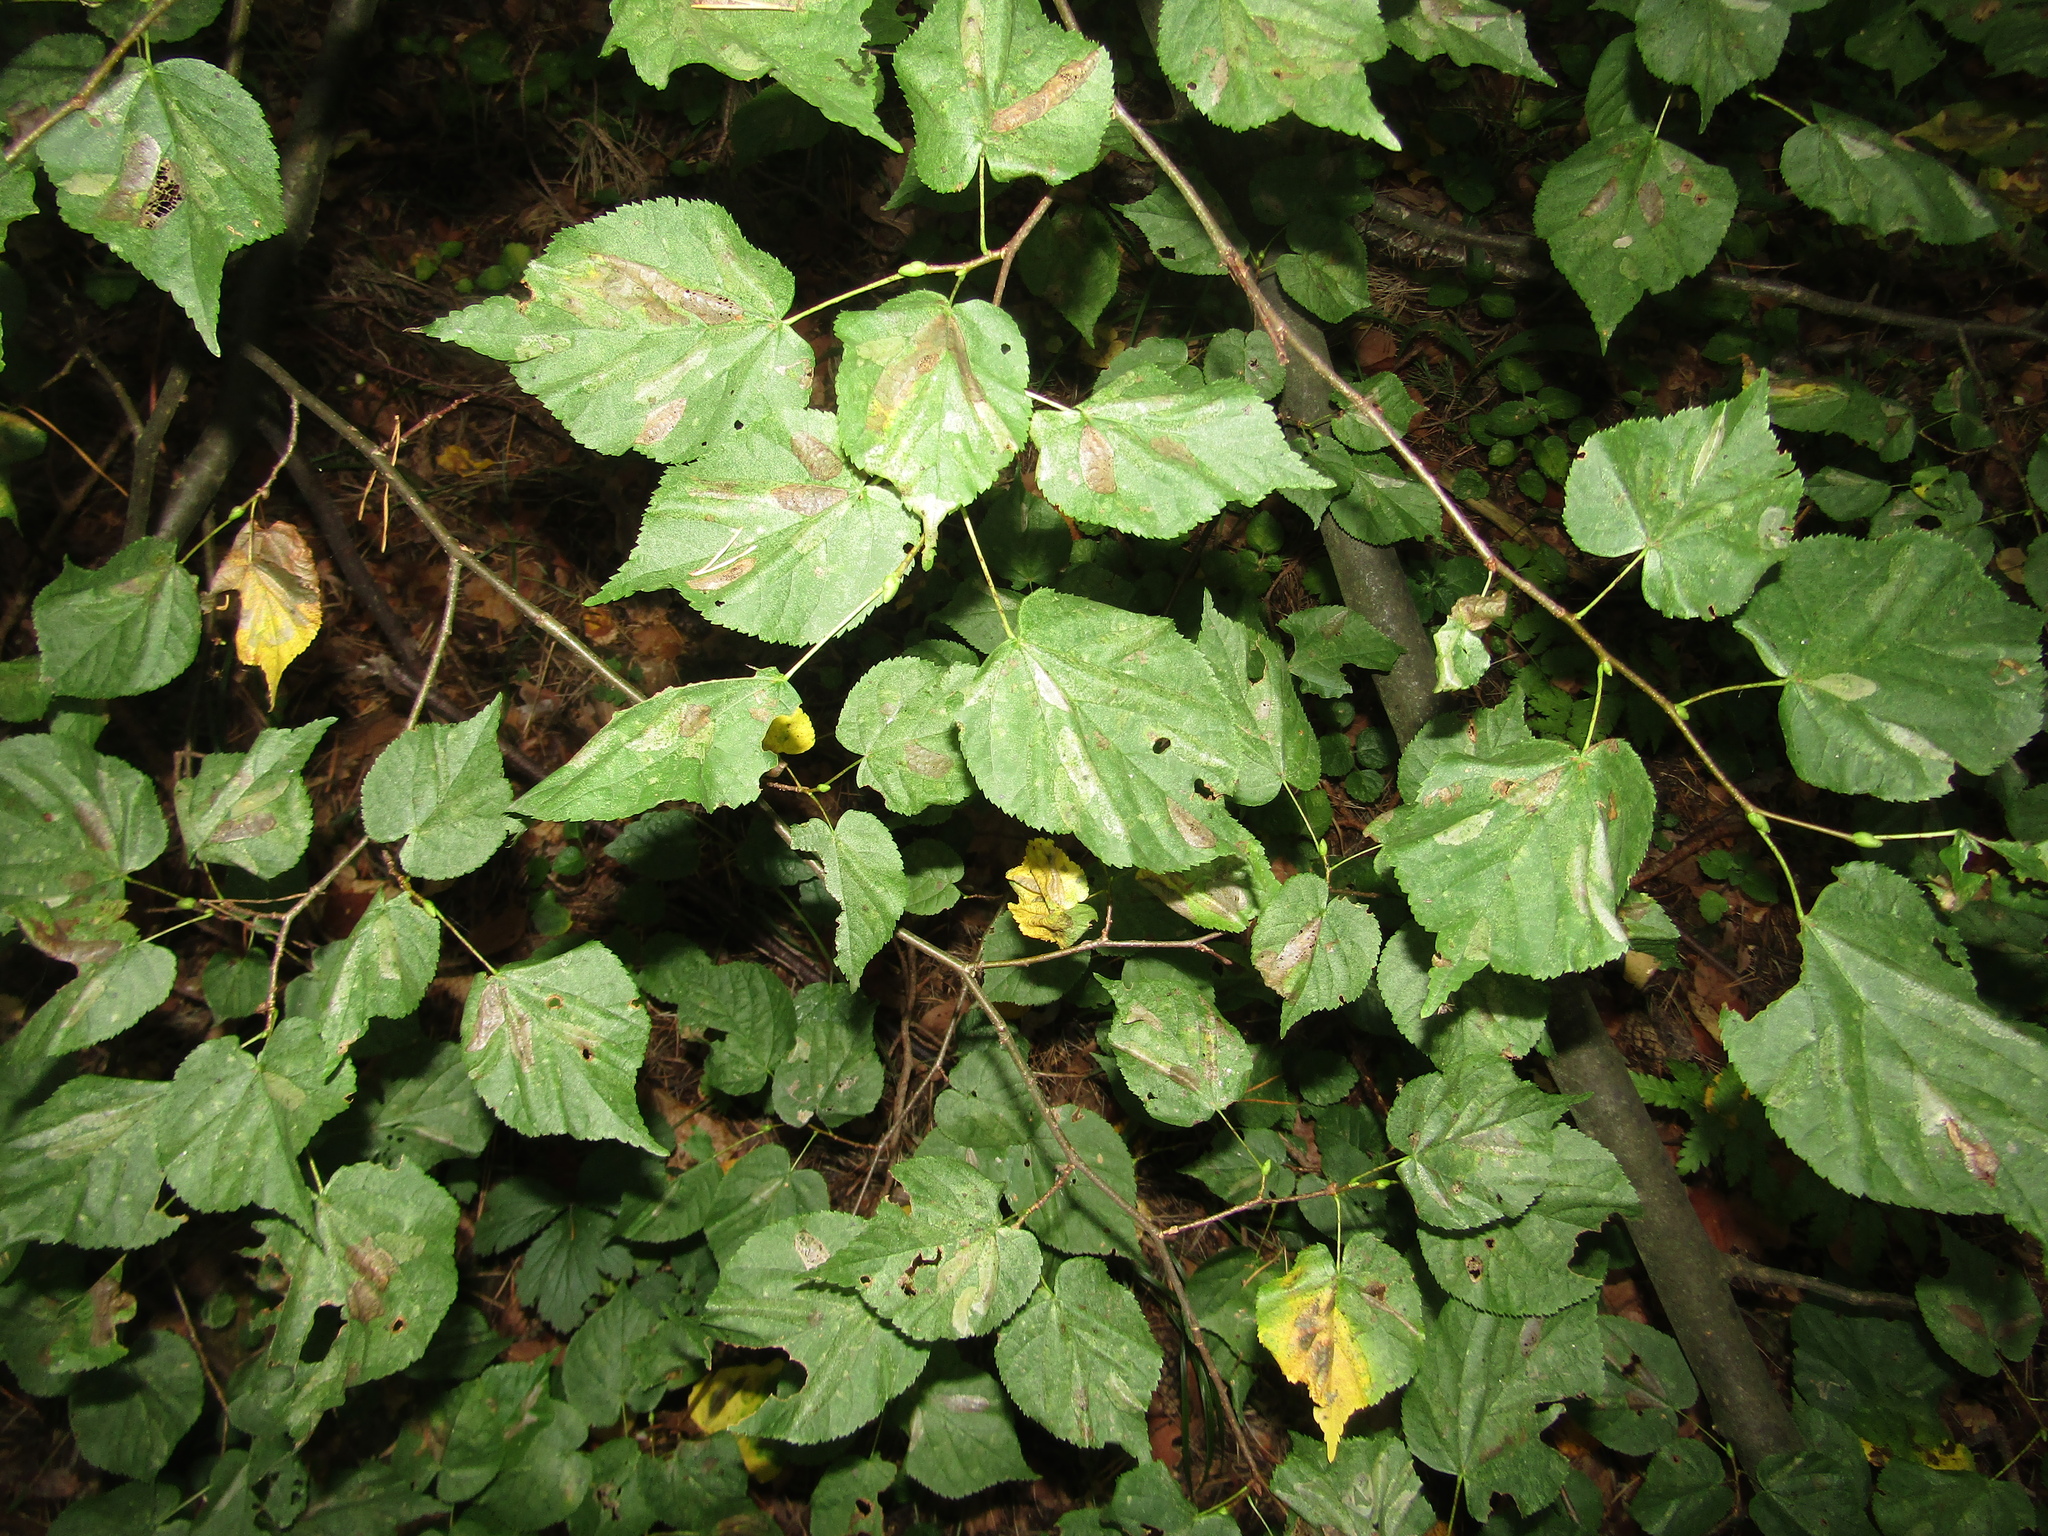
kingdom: Plantae
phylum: Tracheophyta
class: Magnoliopsida
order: Malvales
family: Malvaceae
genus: Tilia
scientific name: Tilia cordata
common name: Small-leaved lime
